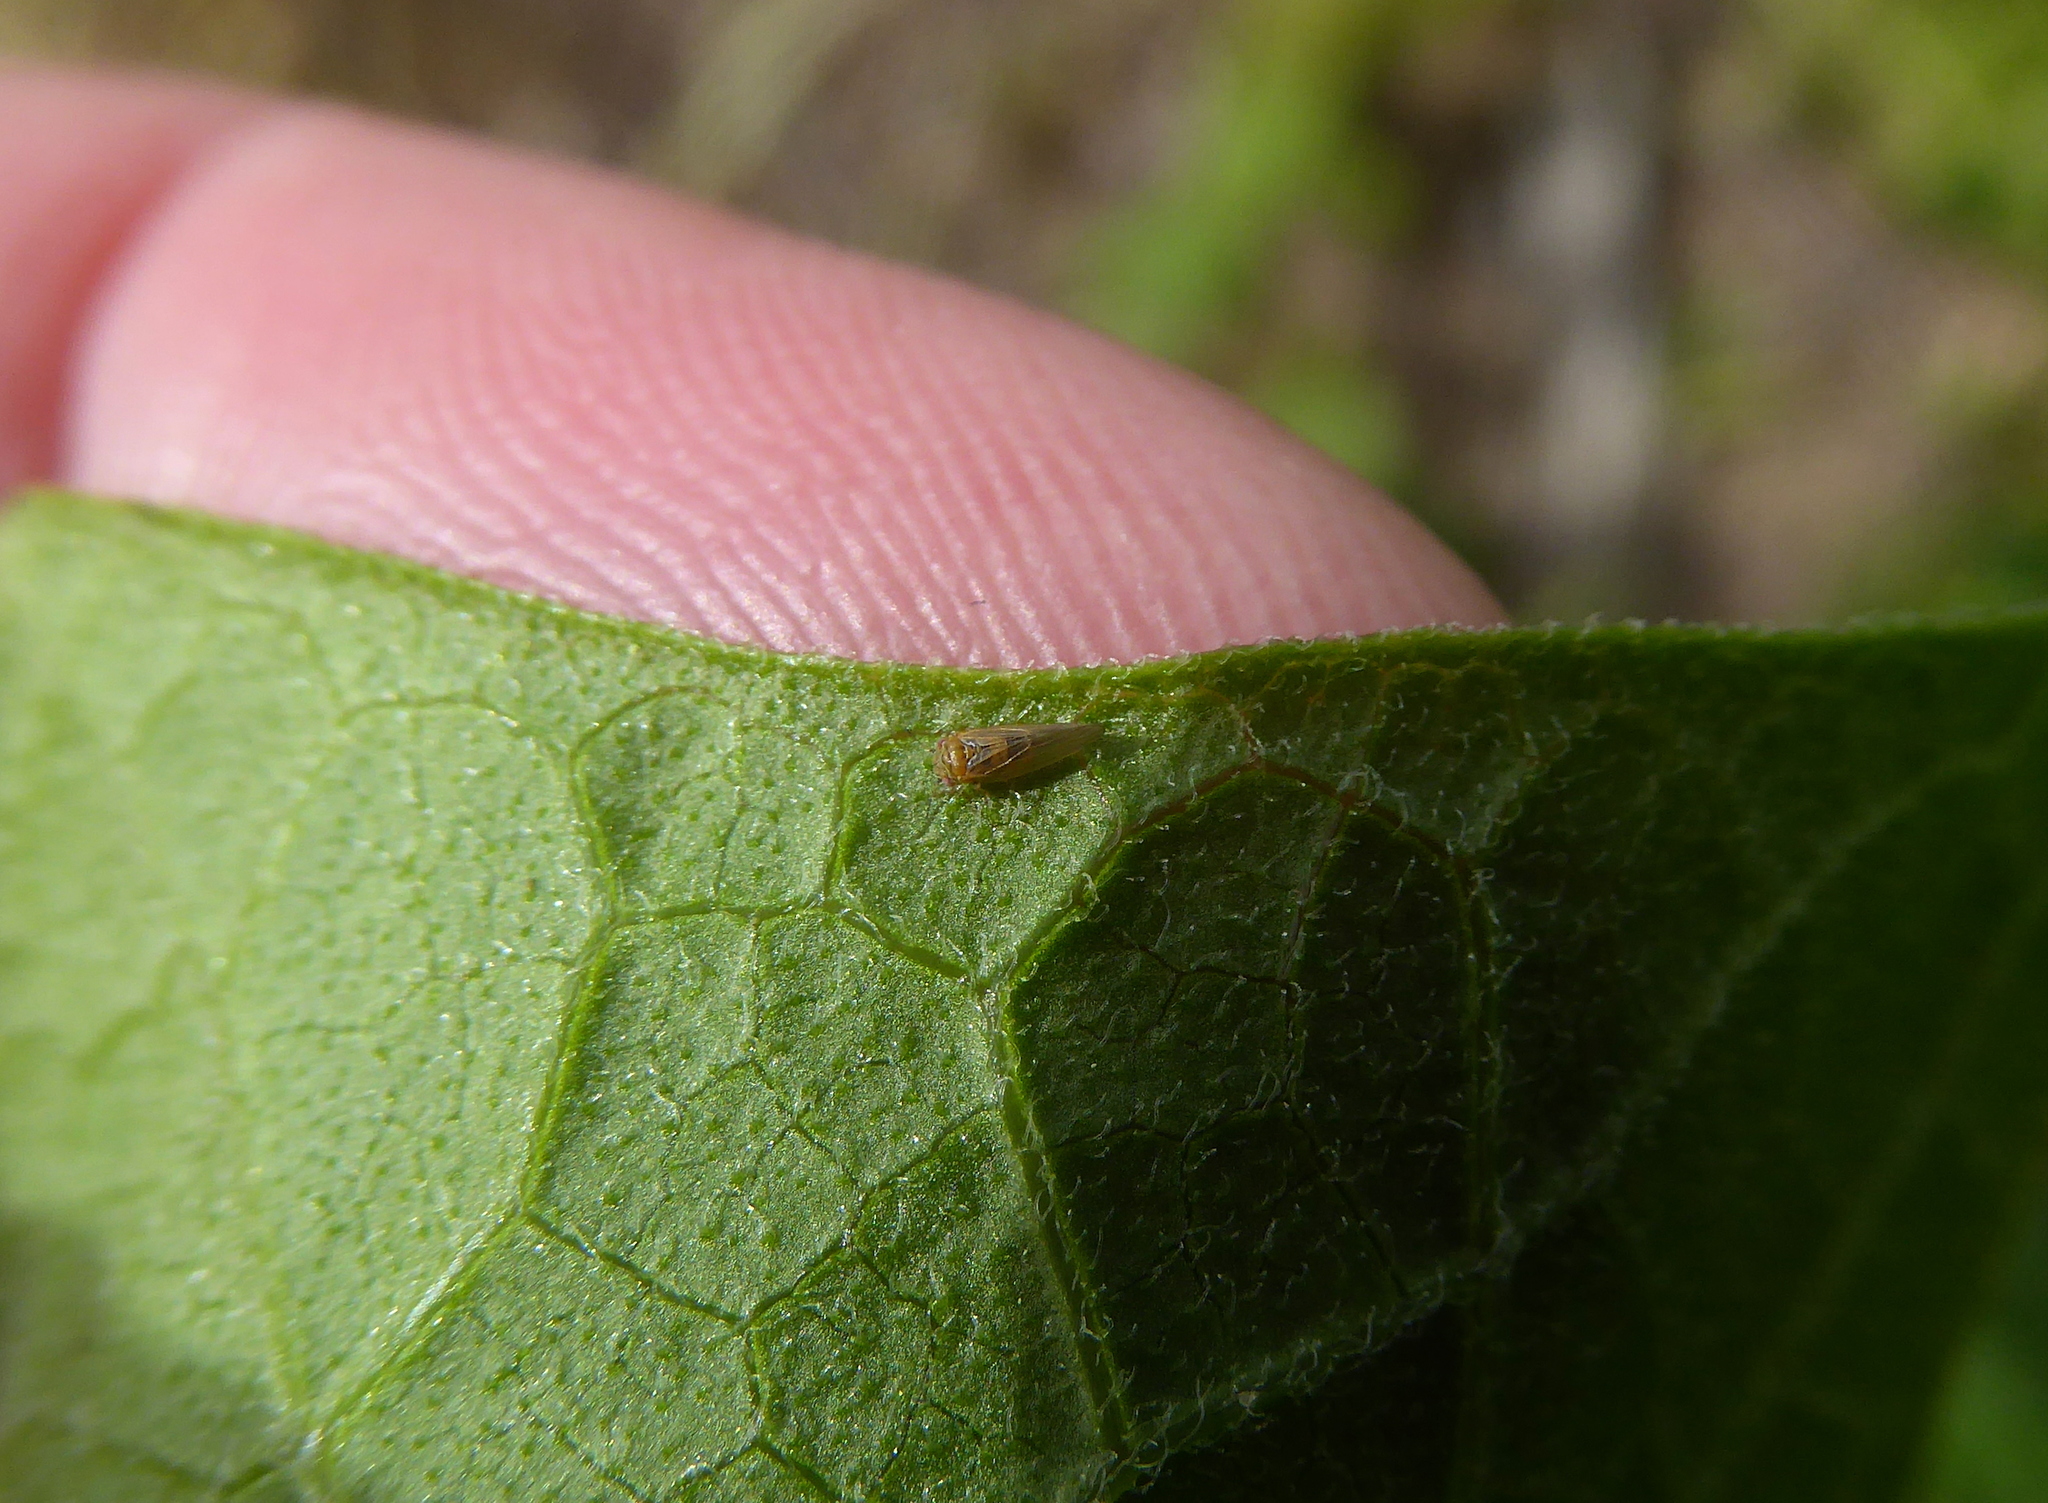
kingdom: Animalia
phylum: Arthropoda
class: Insecta
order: Hemiptera
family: Aphalaridae
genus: Ctenarytaina
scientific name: Ctenarytaina spatulata
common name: Rose gum psillid
